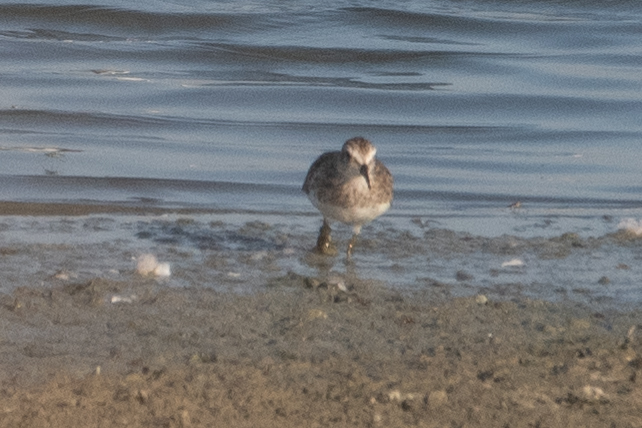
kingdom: Animalia
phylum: Chordata
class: Aves
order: Charadriiformes
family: Scolopacidae
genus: Calidris
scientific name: Calidris minutilla
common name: Least sandpiper
